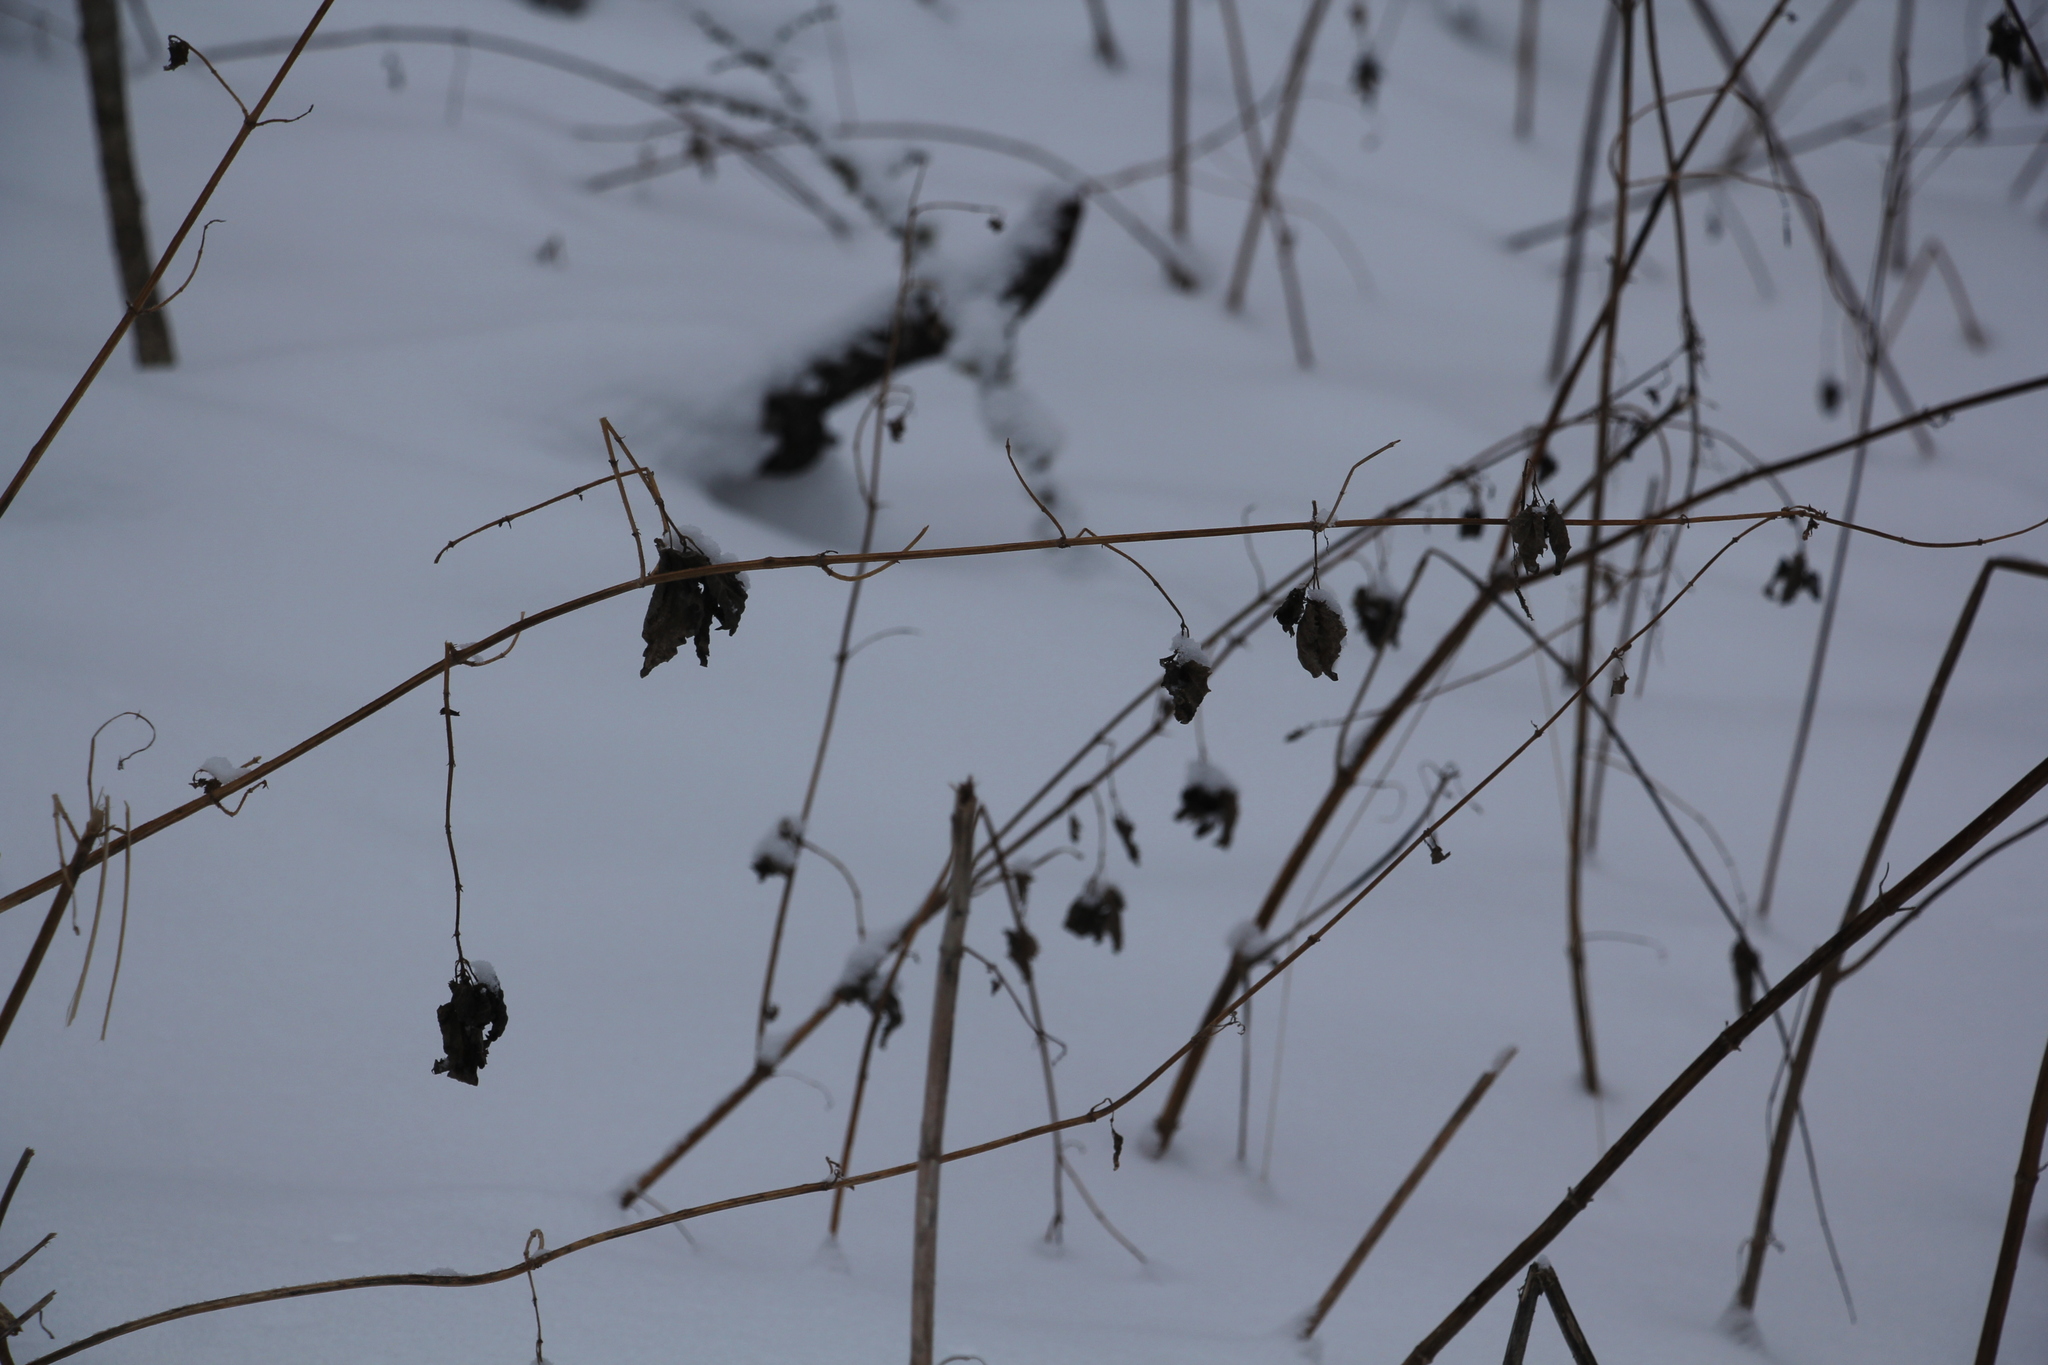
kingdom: Plantae
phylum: Tracheophyta
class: Magnoliopsida
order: Rosales
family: Urticaceae
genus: Urtica
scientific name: Urtica dioica
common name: Common nettle
